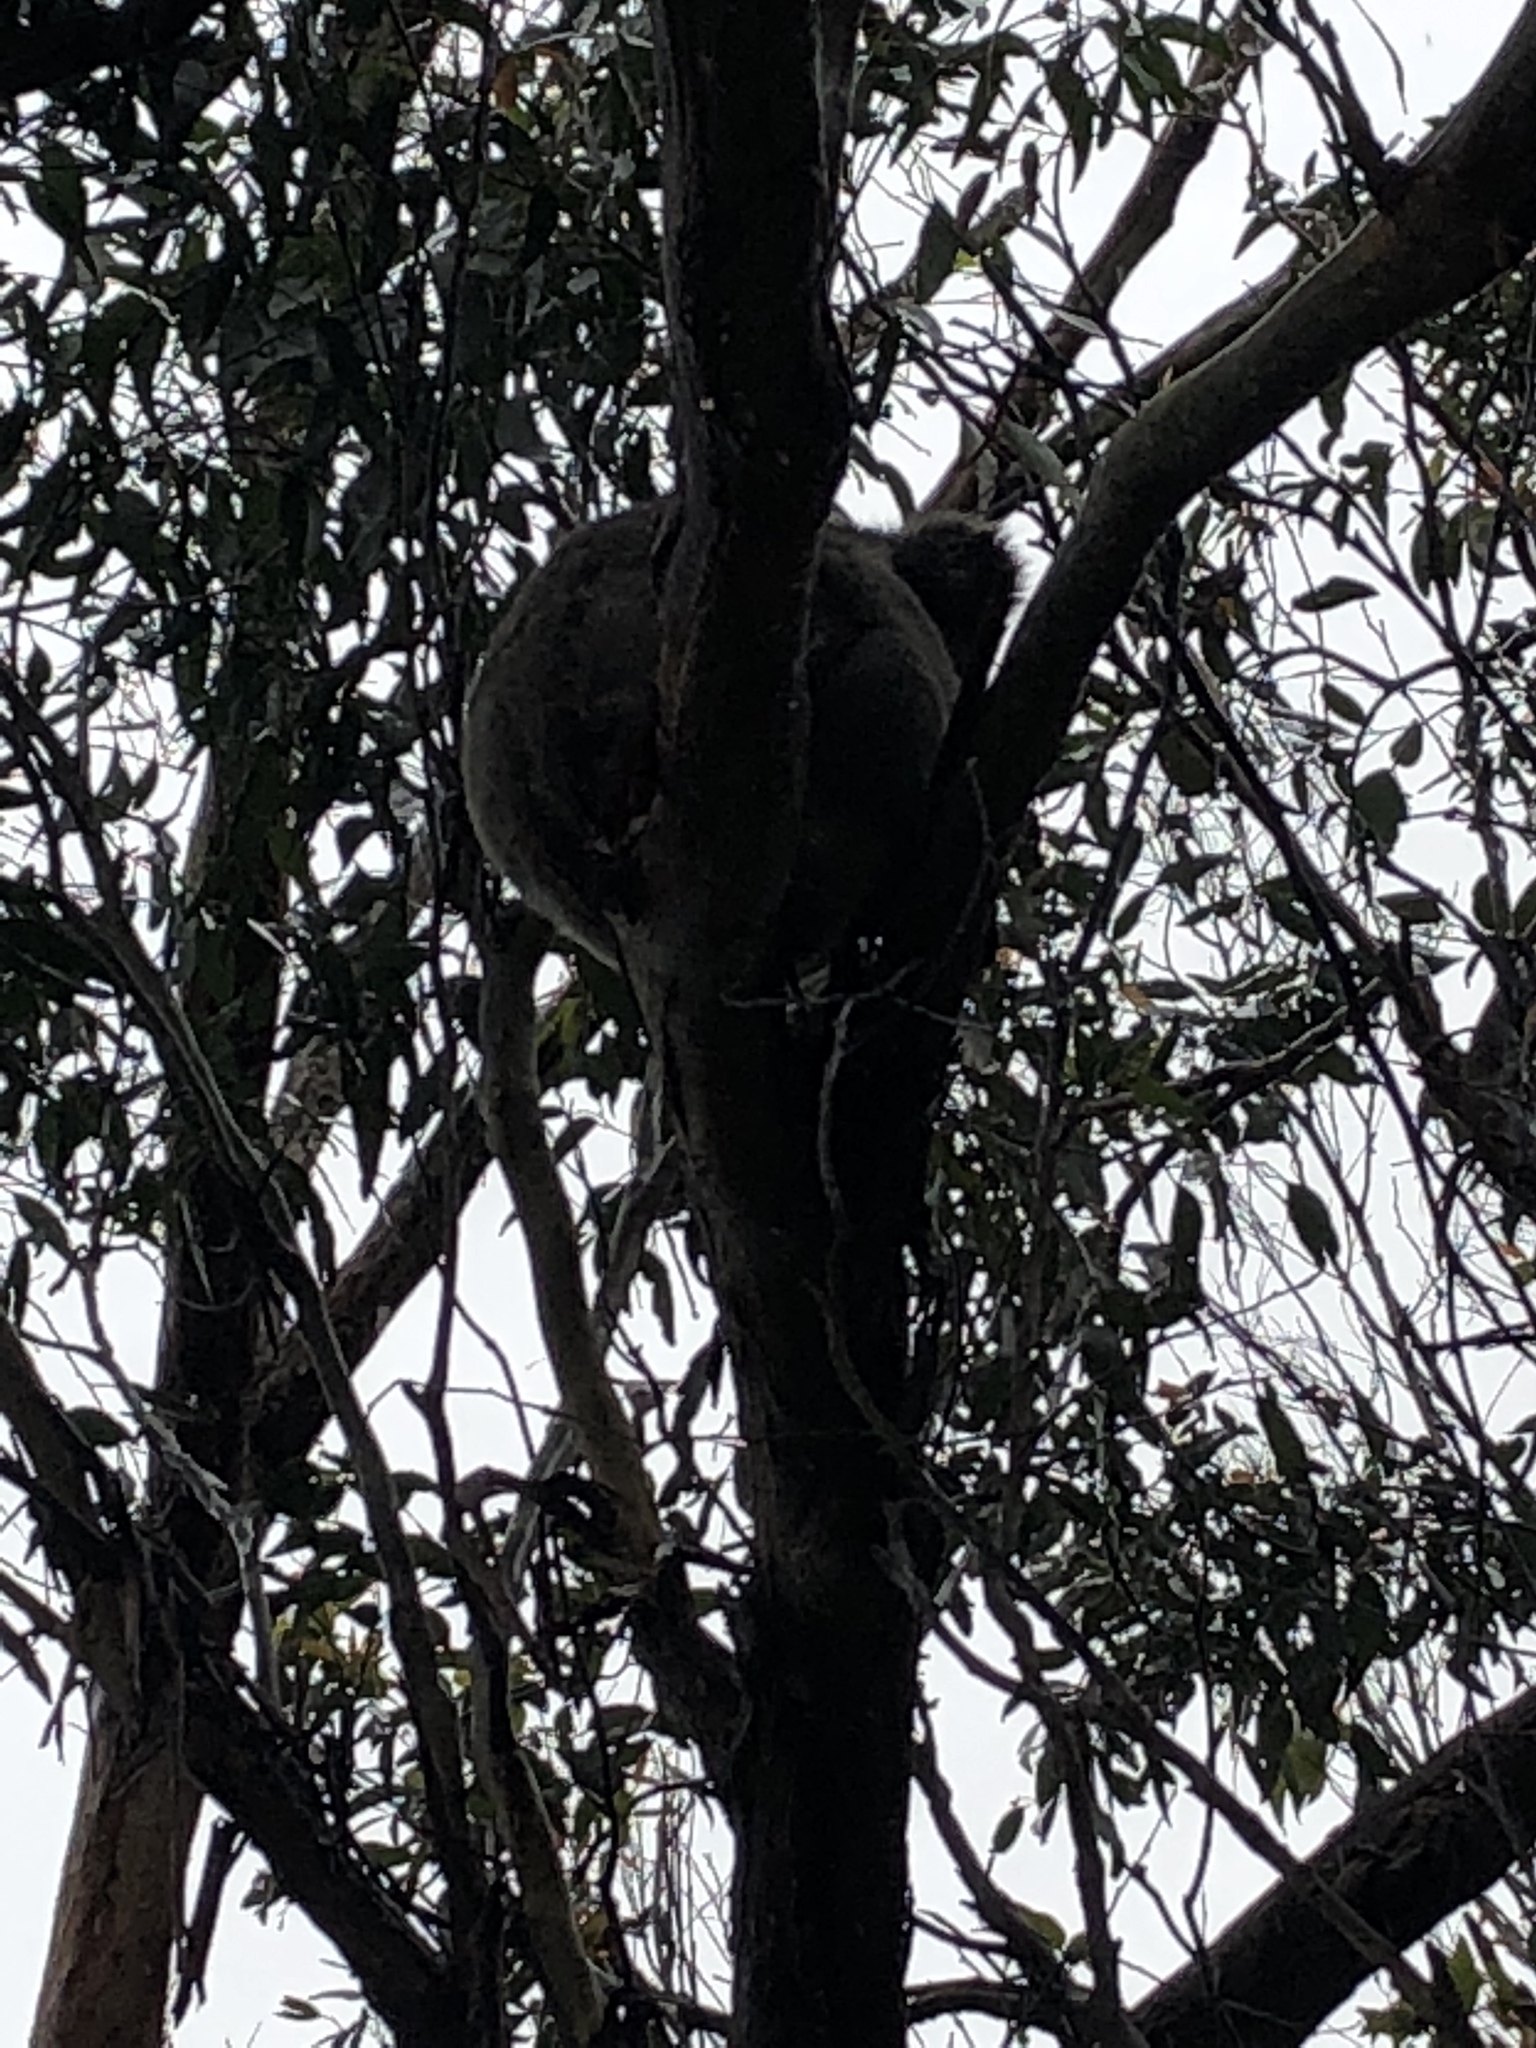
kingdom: Animalia
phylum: Chordata
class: Mammalia
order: Diprotodontia
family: Phascolarctidae
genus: Phascolarctos
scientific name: Phascolarctos cinereus
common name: Koala
